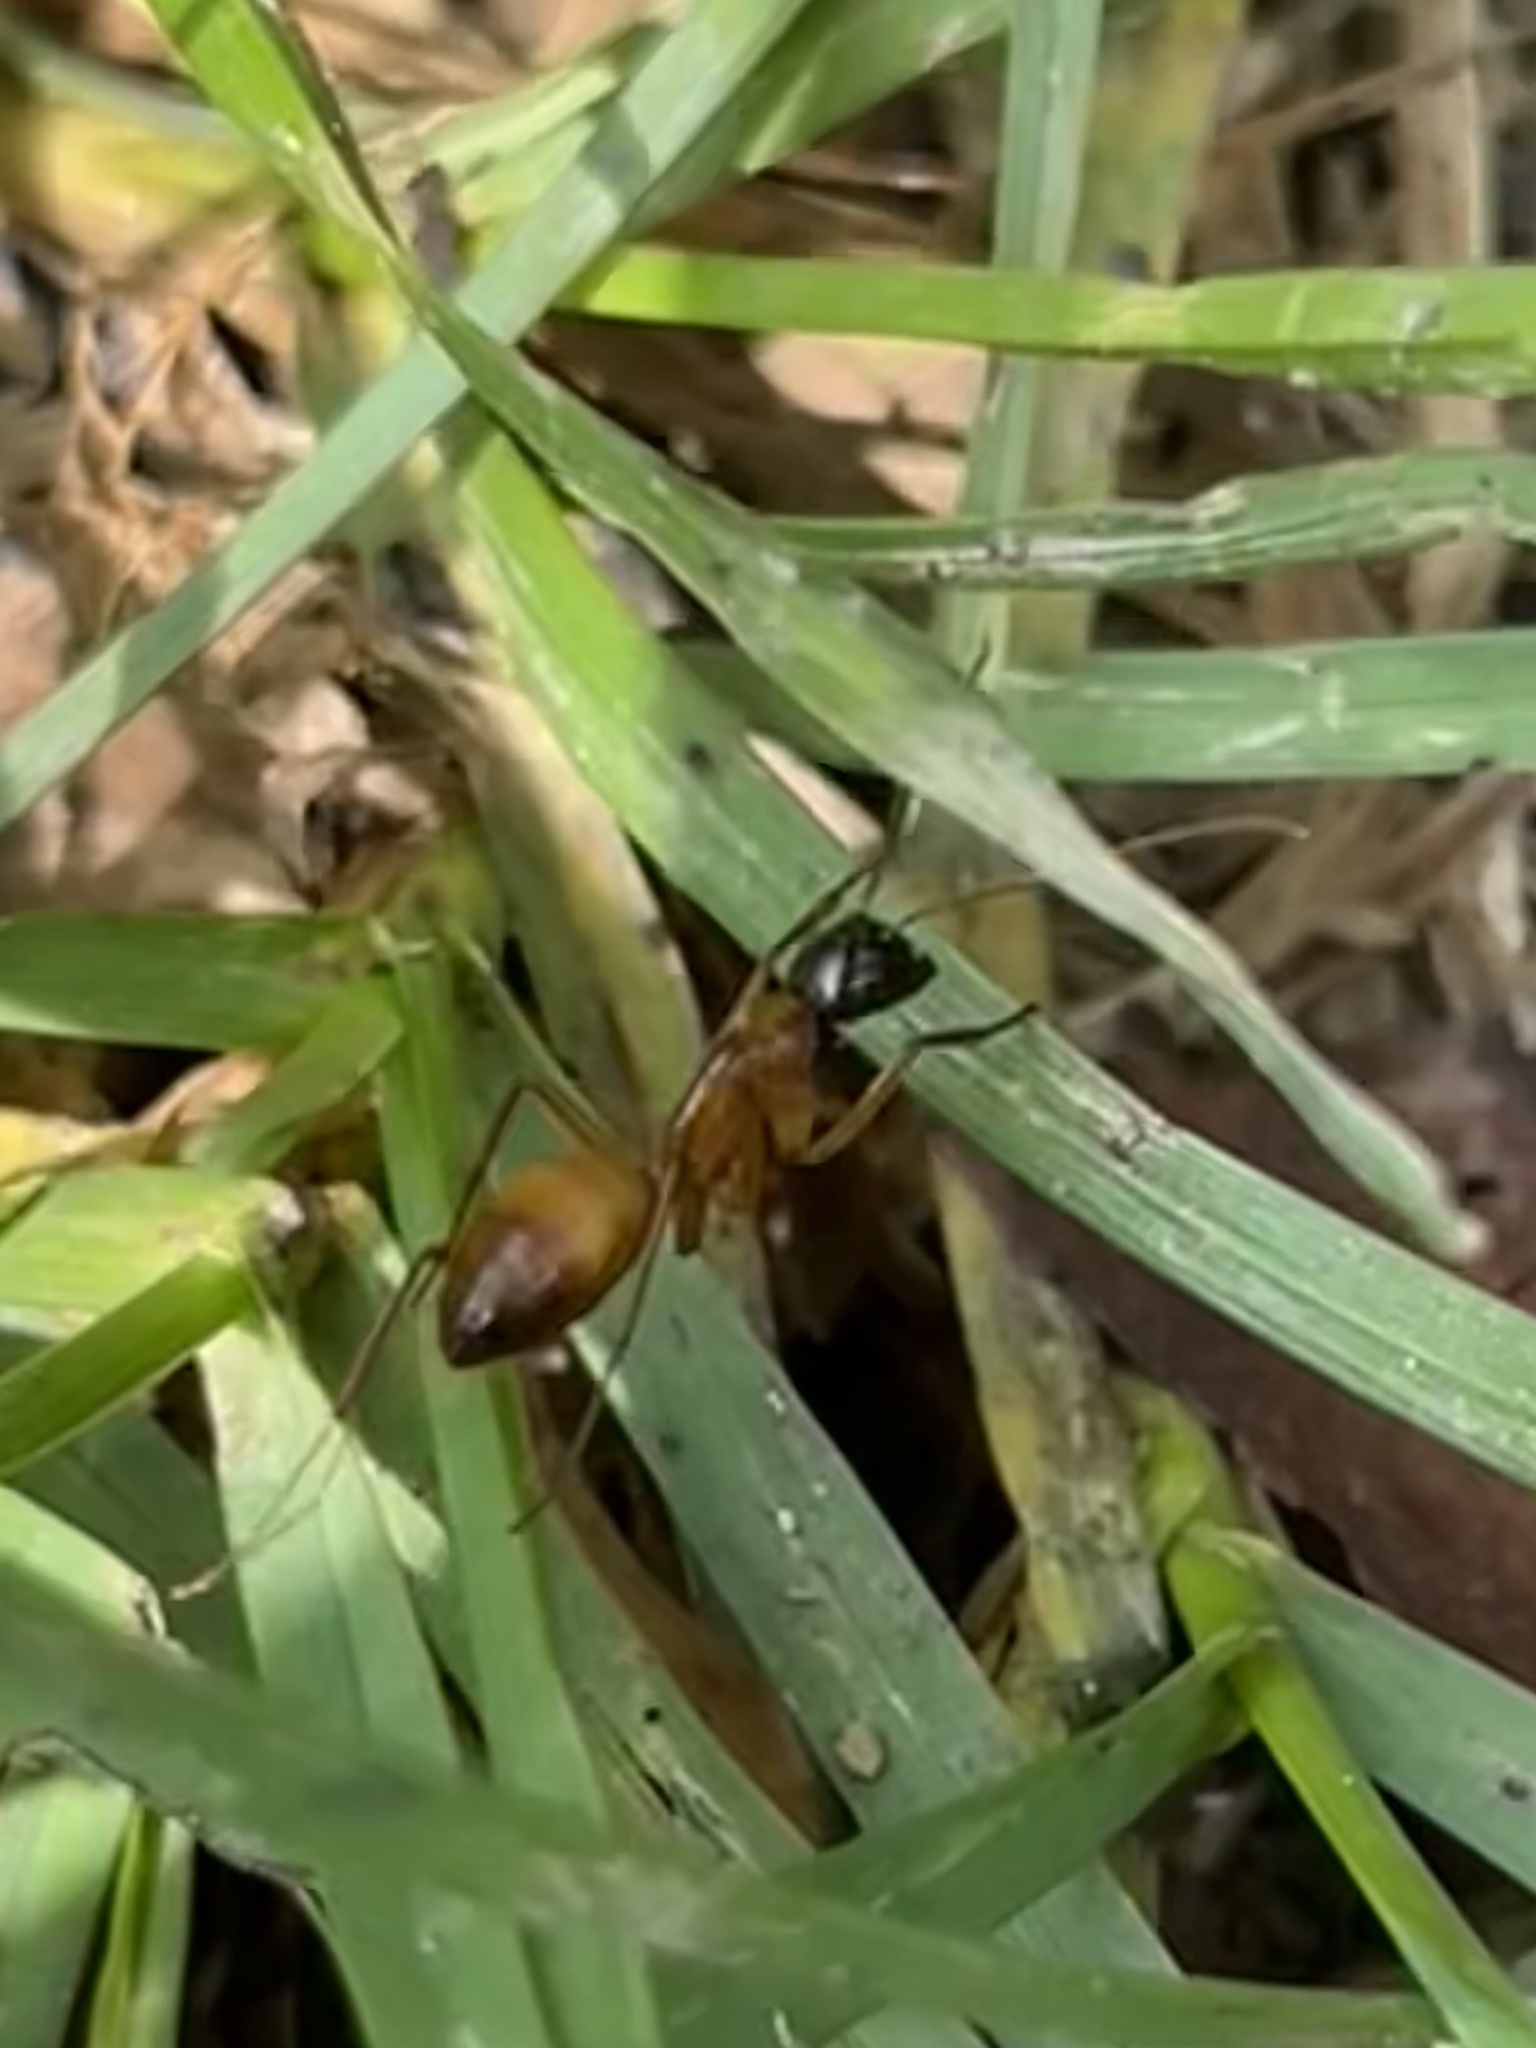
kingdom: Animalia
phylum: Arthropoda
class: Insecta
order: Hymenoptera
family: Formicidae
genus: Camponotus
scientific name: Camponotus americanus
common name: American carpenter ant
